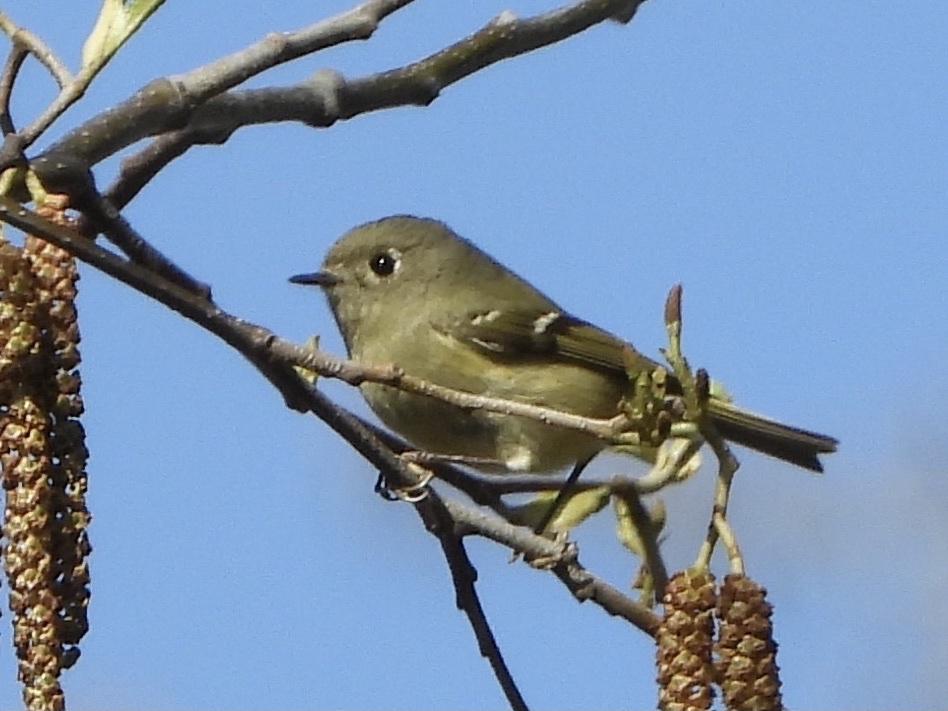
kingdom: Animalia
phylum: Chordata
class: Aves
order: Passeriformes
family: Regulidae
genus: Regulus
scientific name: Regulus calendula
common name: Ruby-crowned kinglet
